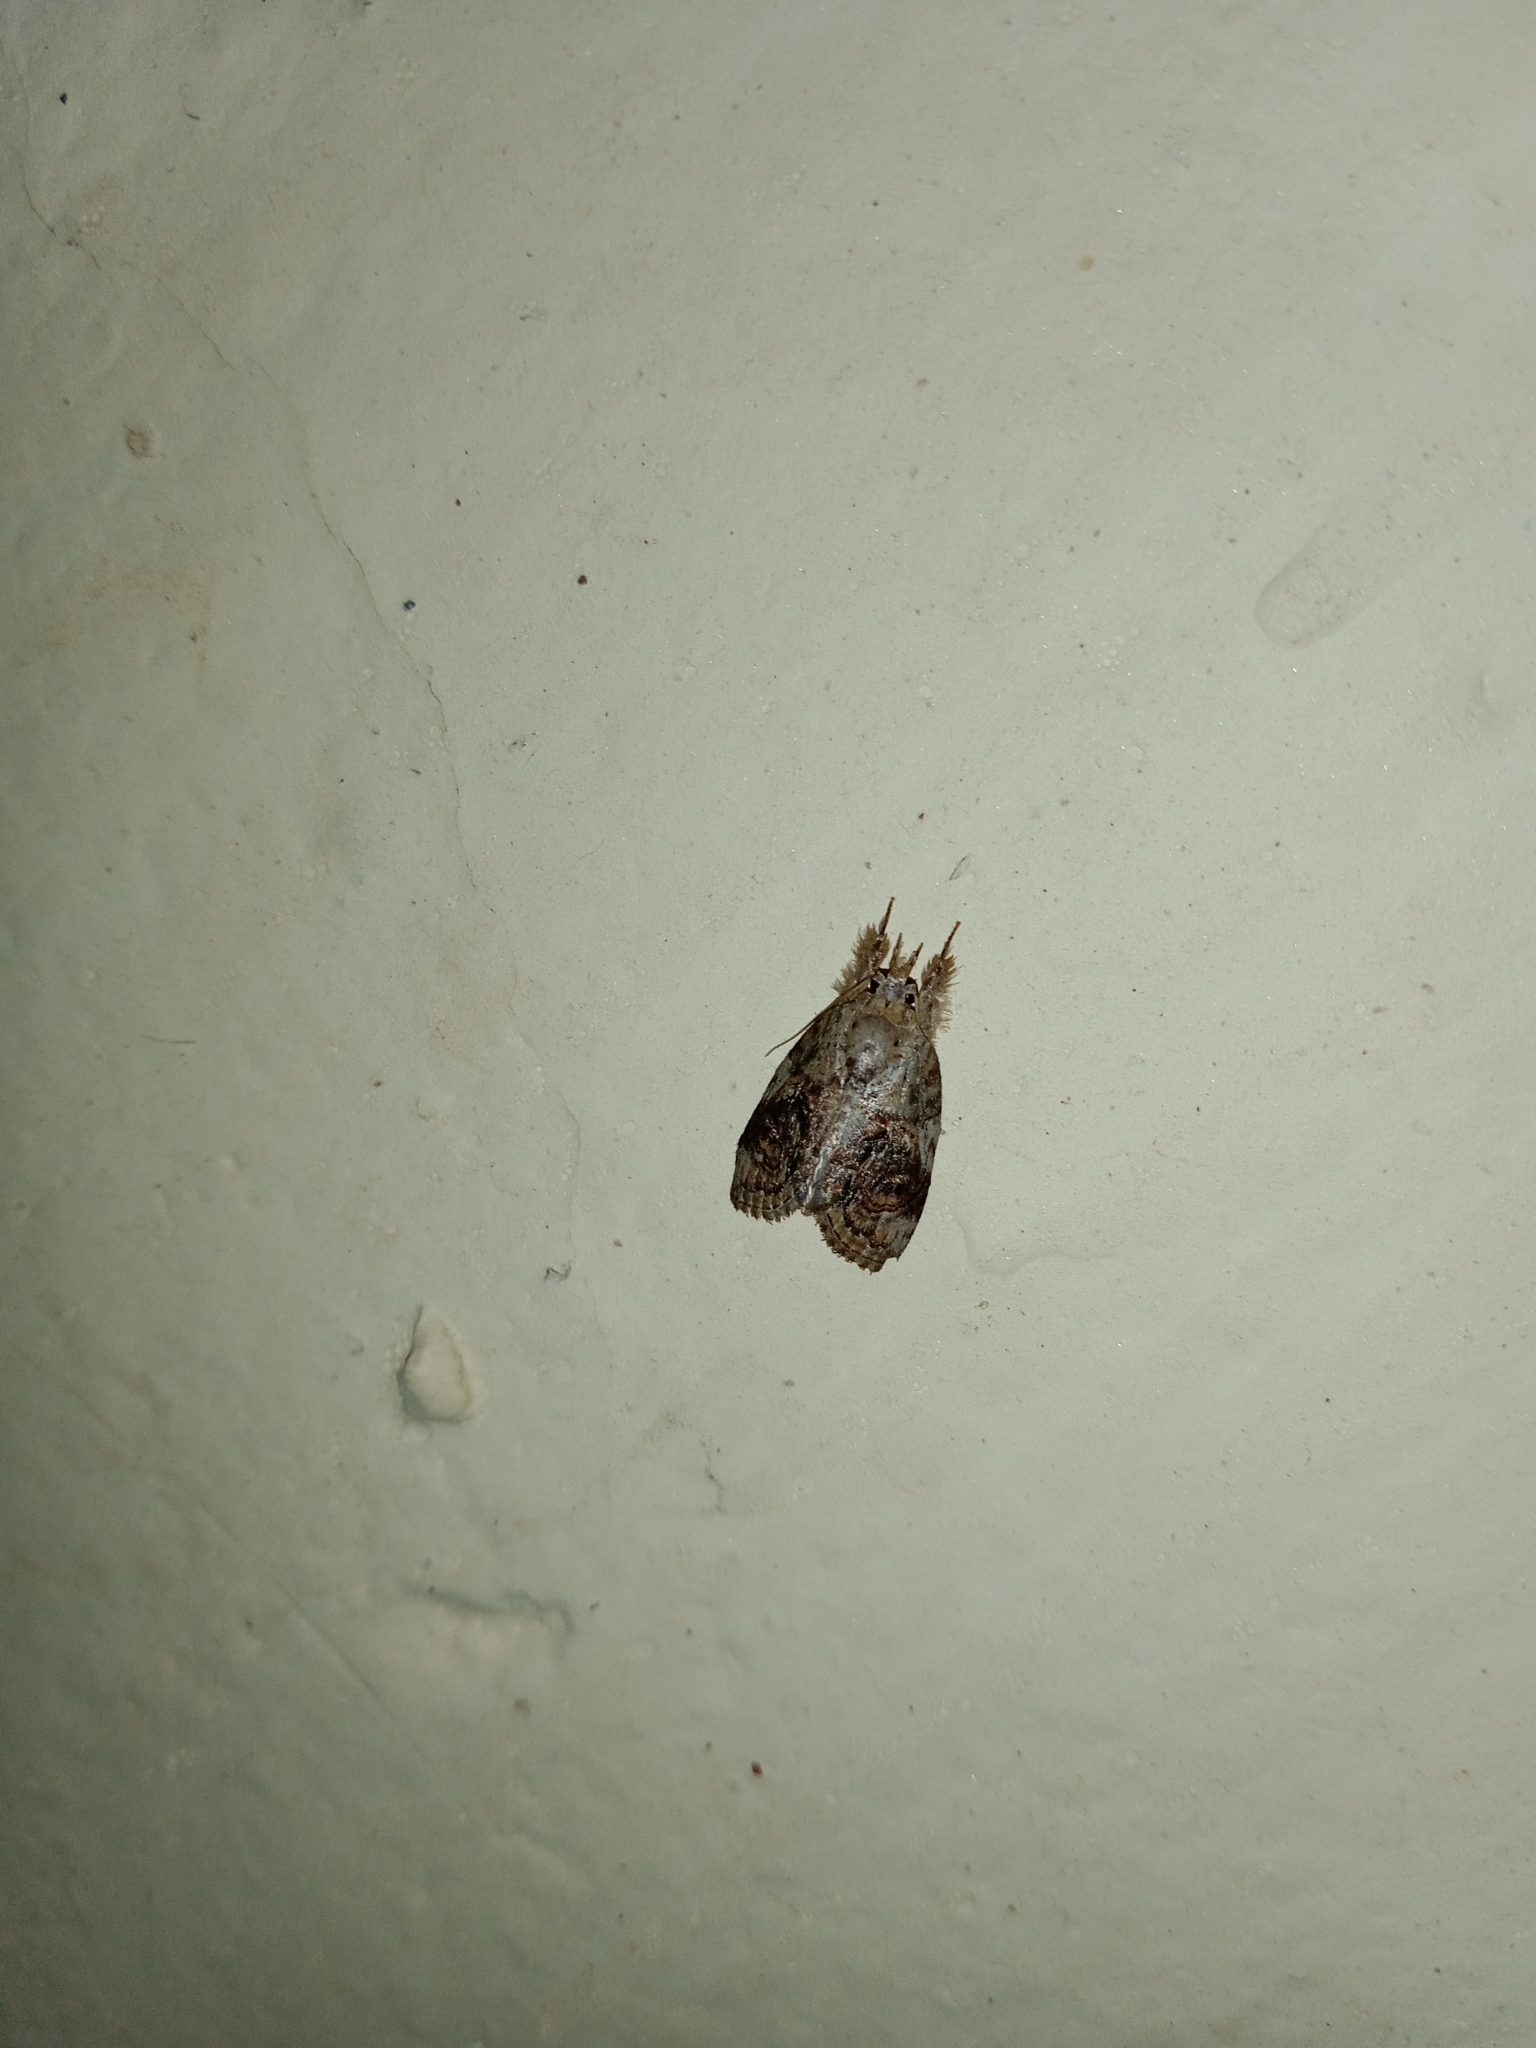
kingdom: Animalia
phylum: Arthropoda
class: Insecta
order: Lepidoptera
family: Nolidae
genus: Selepa
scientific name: Selepa celtis
